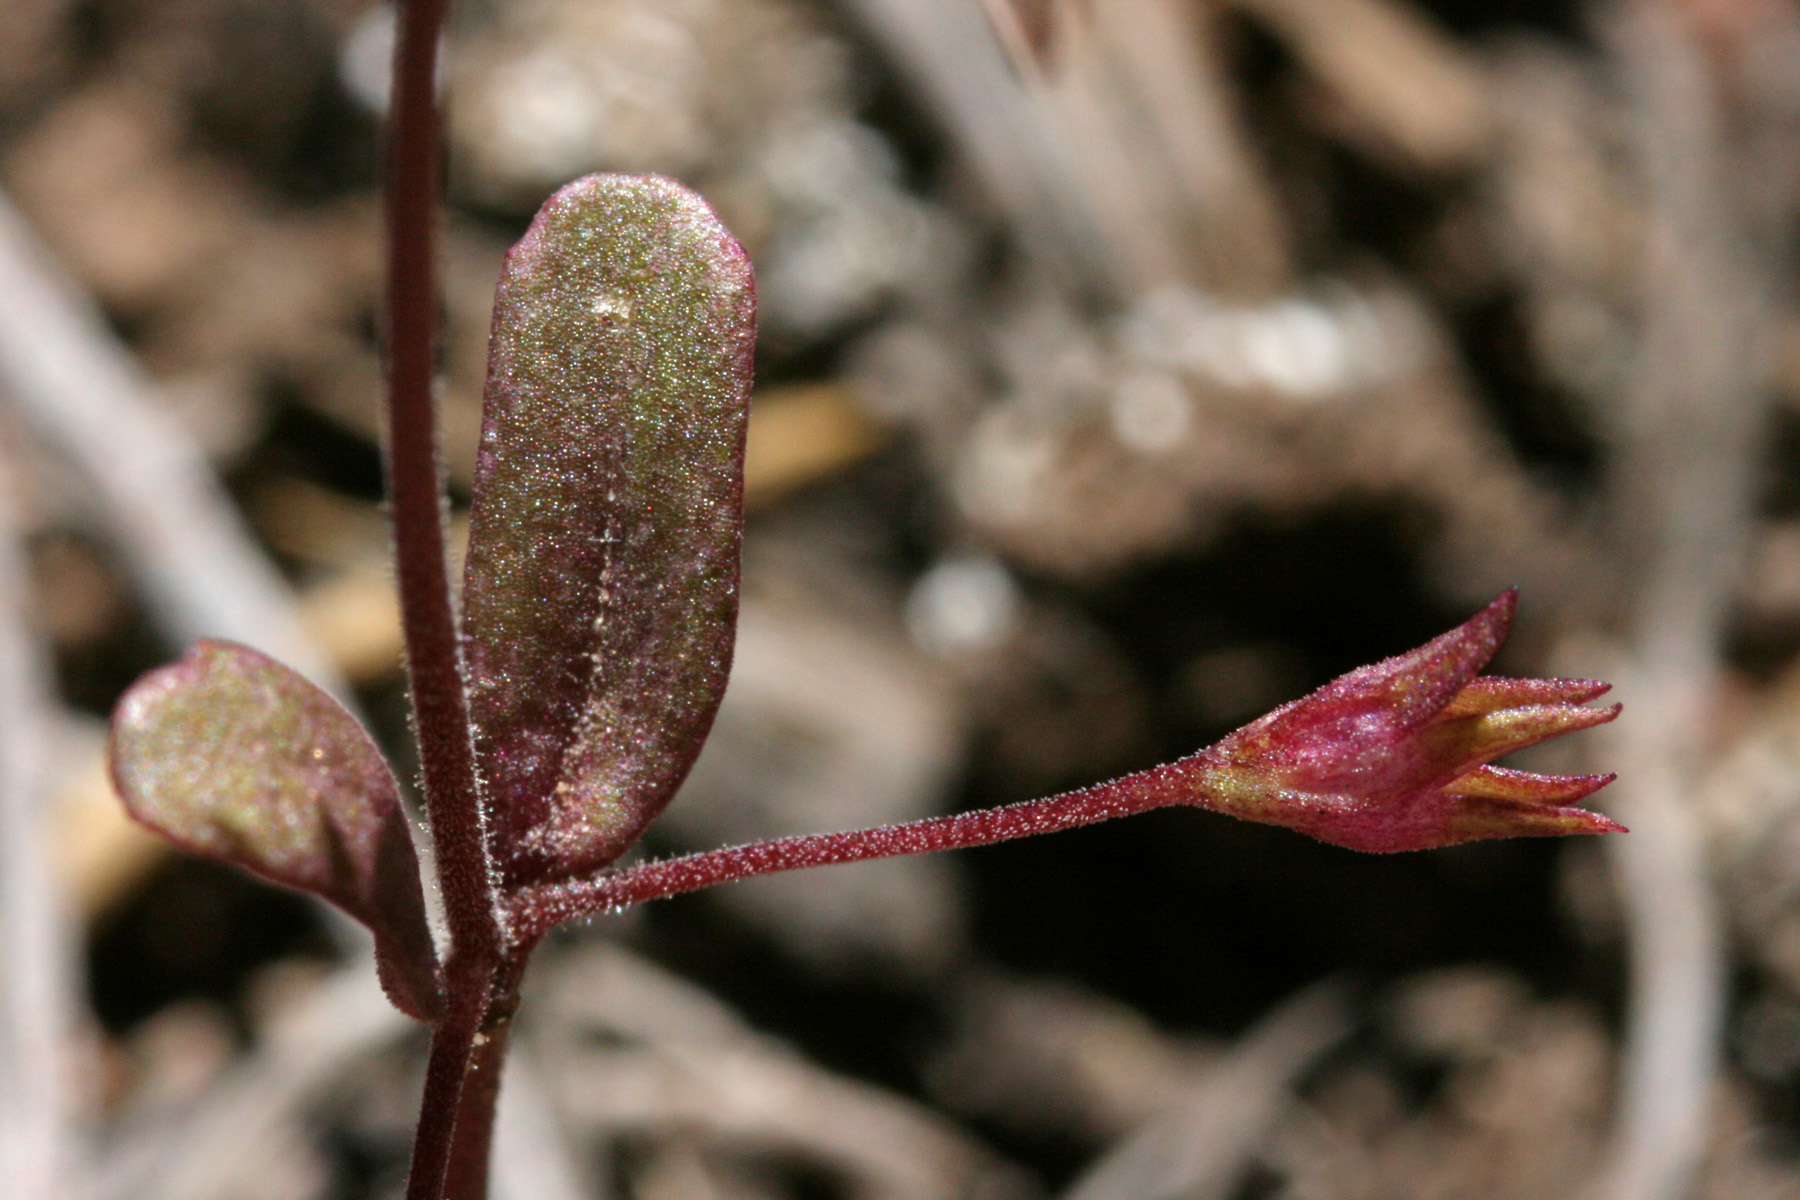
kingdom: Plantae
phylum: Tracheophyta
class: Magnoliopsida
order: Lamiales
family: Plantaginaceae
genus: Collinsia
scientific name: Collinsia parviflora
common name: Blue-lips
